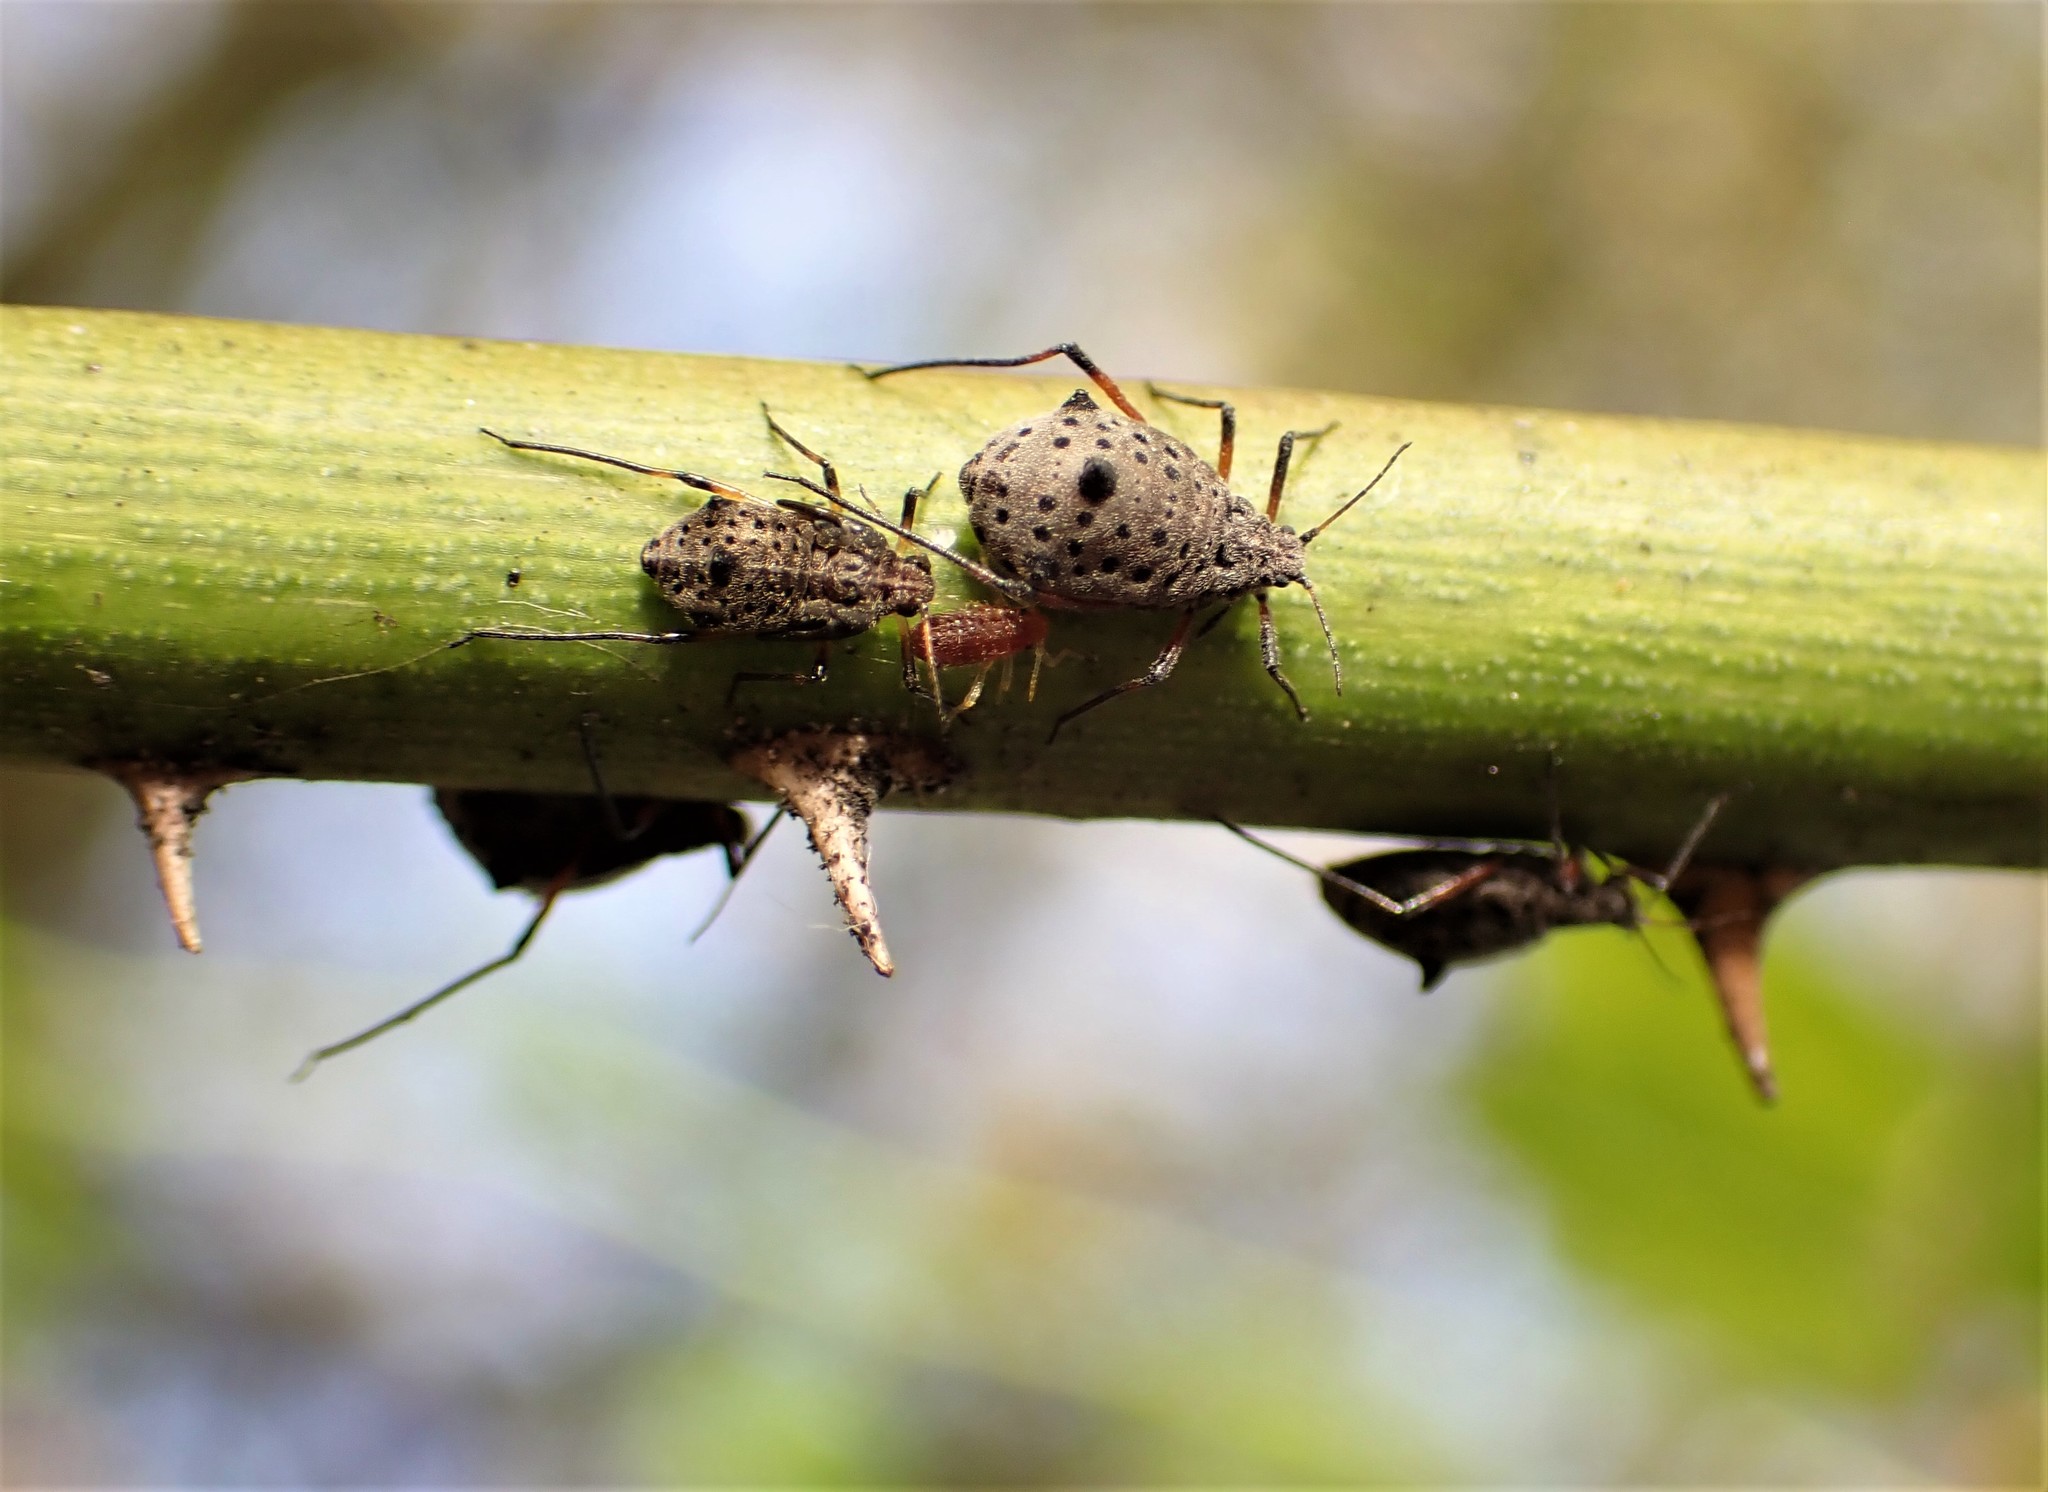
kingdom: Animalia
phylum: Arthropoda
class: Insecta
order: Hemiptera
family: Aphididae
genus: Tuberolachnus
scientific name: Tuberolachnus salignus
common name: Giant willow aphid
